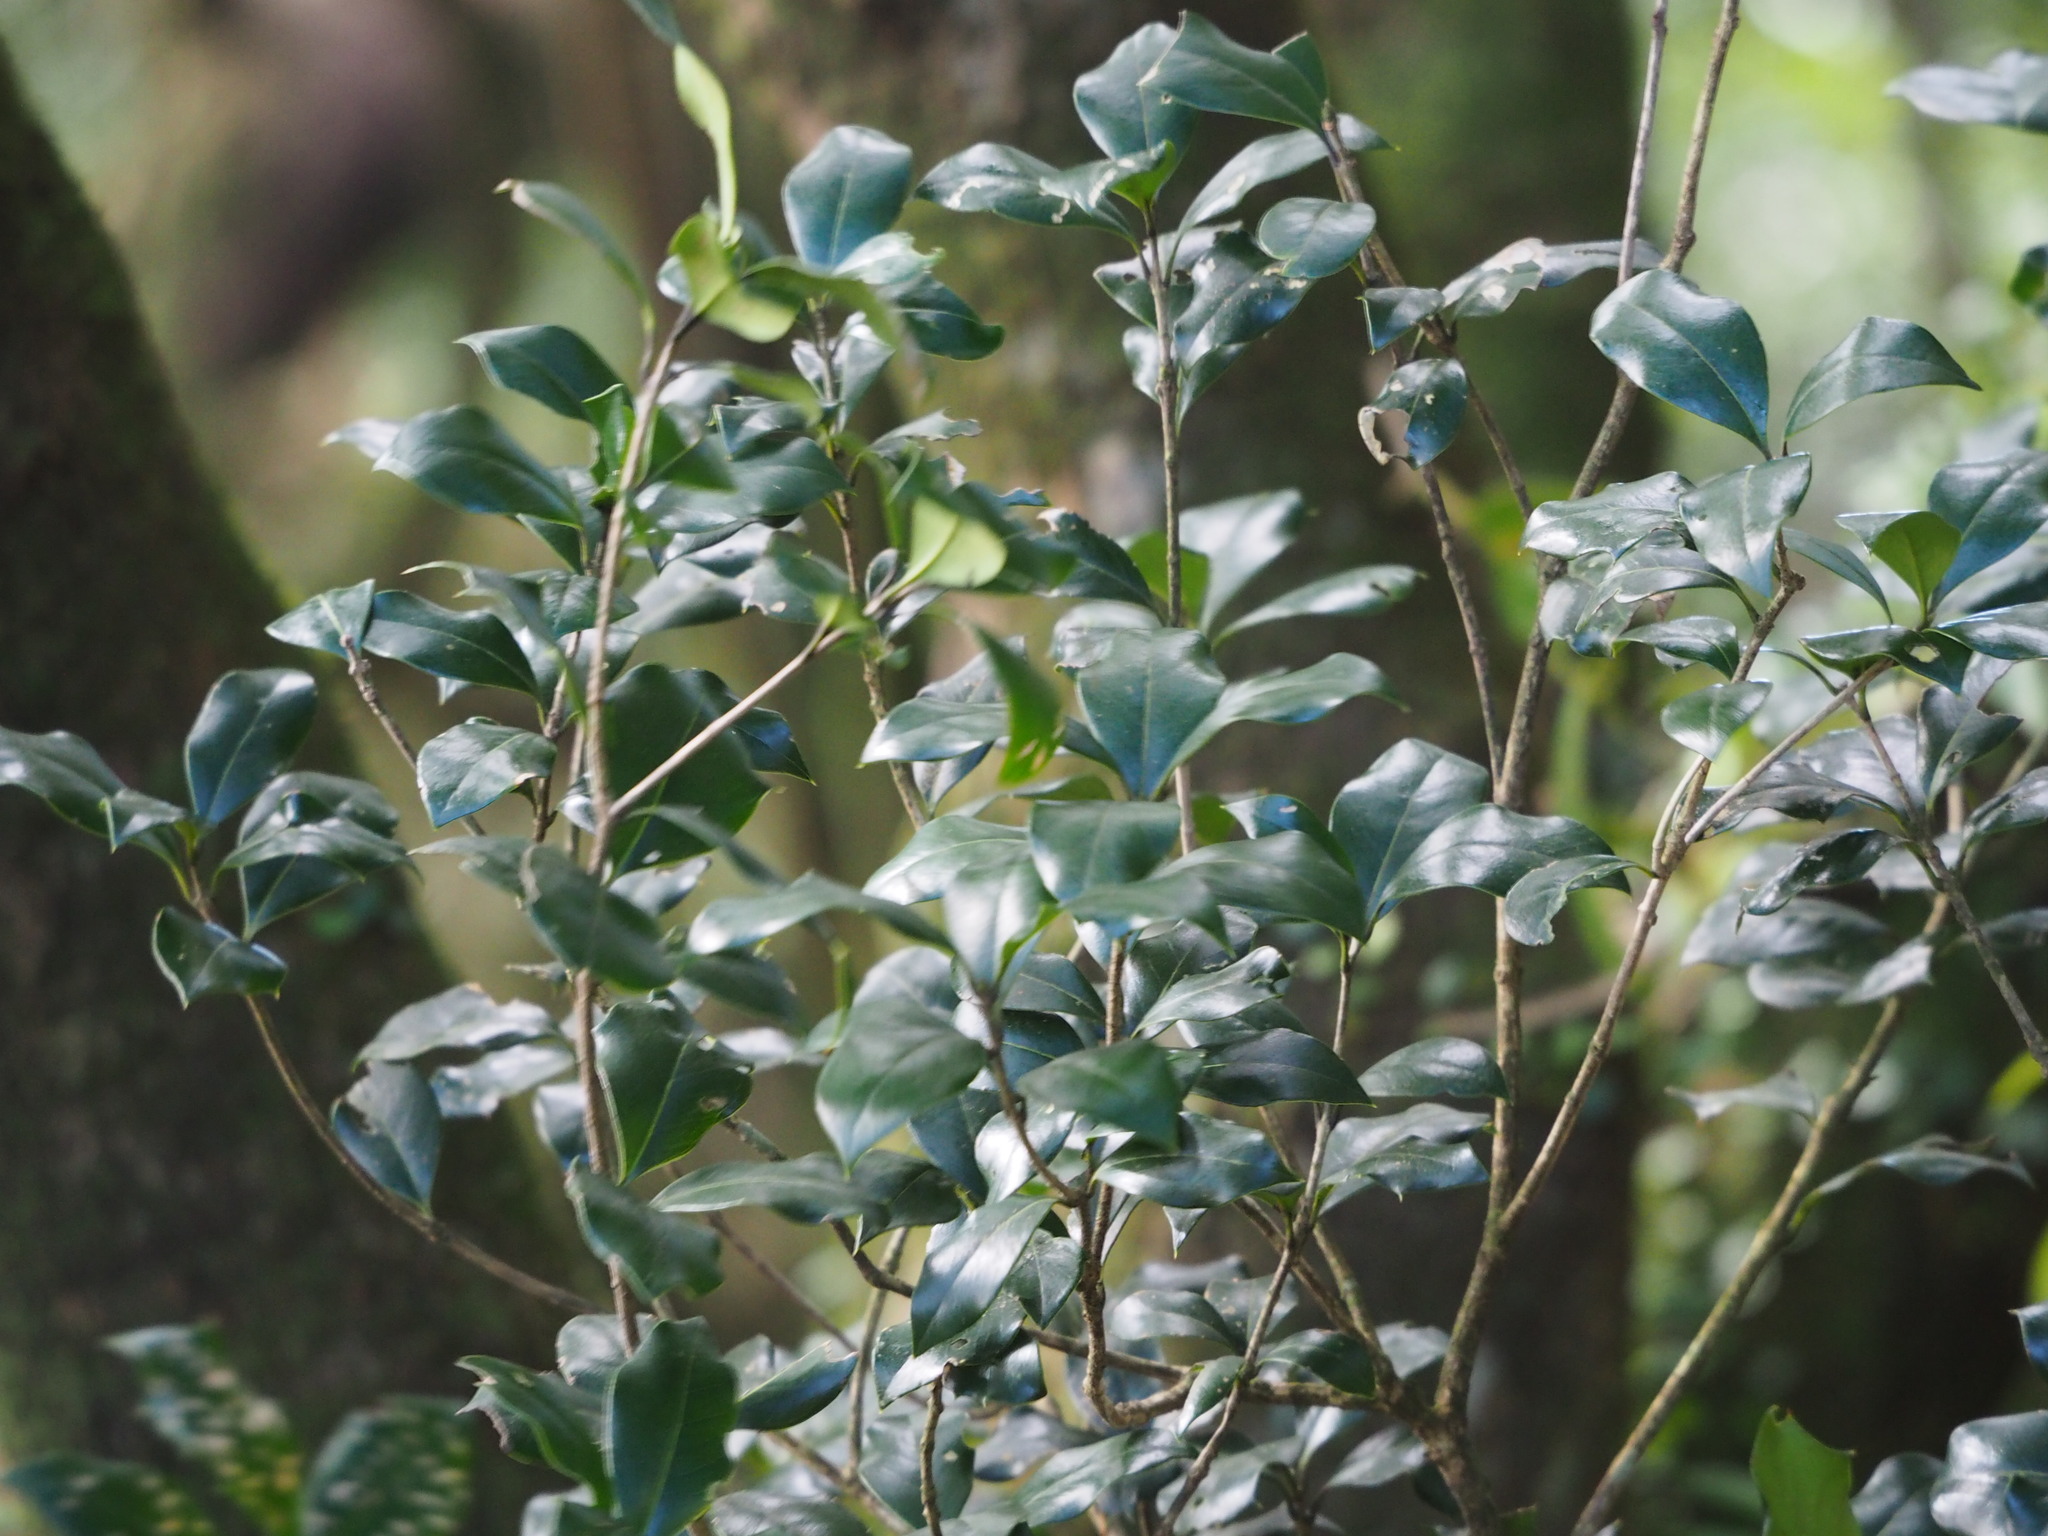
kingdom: Plantae
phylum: Tracheophyta
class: Magnoliopsida
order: Lamiales
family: Oleaceae
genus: Osmanthus
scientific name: Osmanthus heterophyllus
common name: Holly osmanthus
